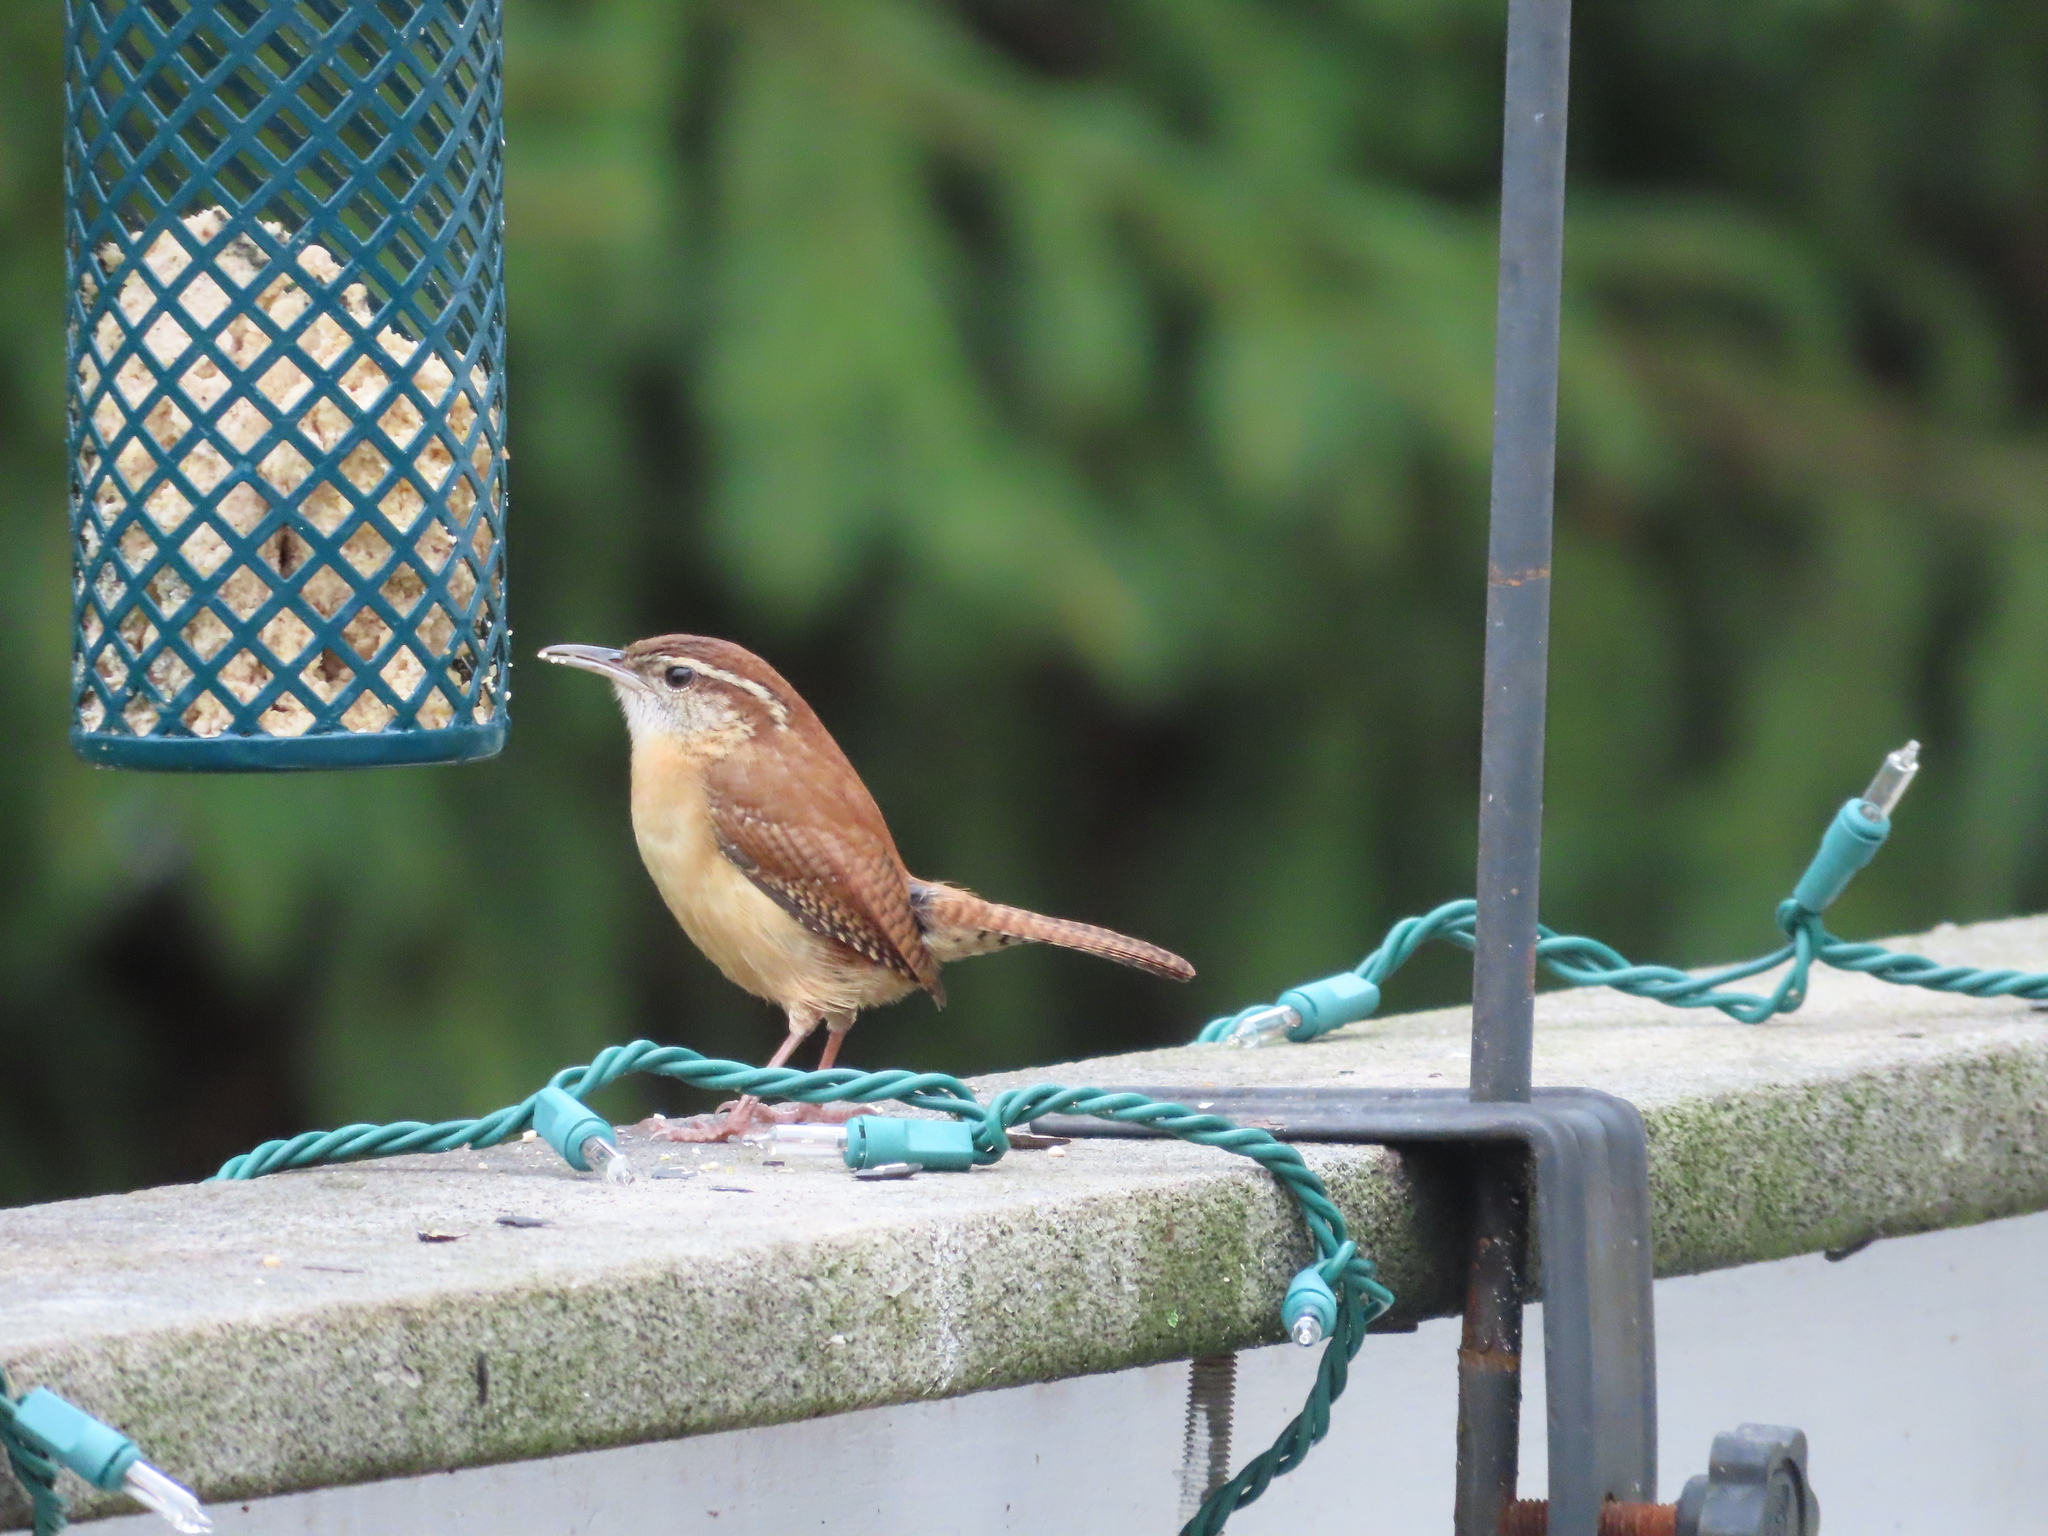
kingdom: Animalia
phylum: Chordata
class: Aves
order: Passeriformes
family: Troglodytidae
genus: Thryothorus
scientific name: Thryothorus ludovicianus
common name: Carolina wren
